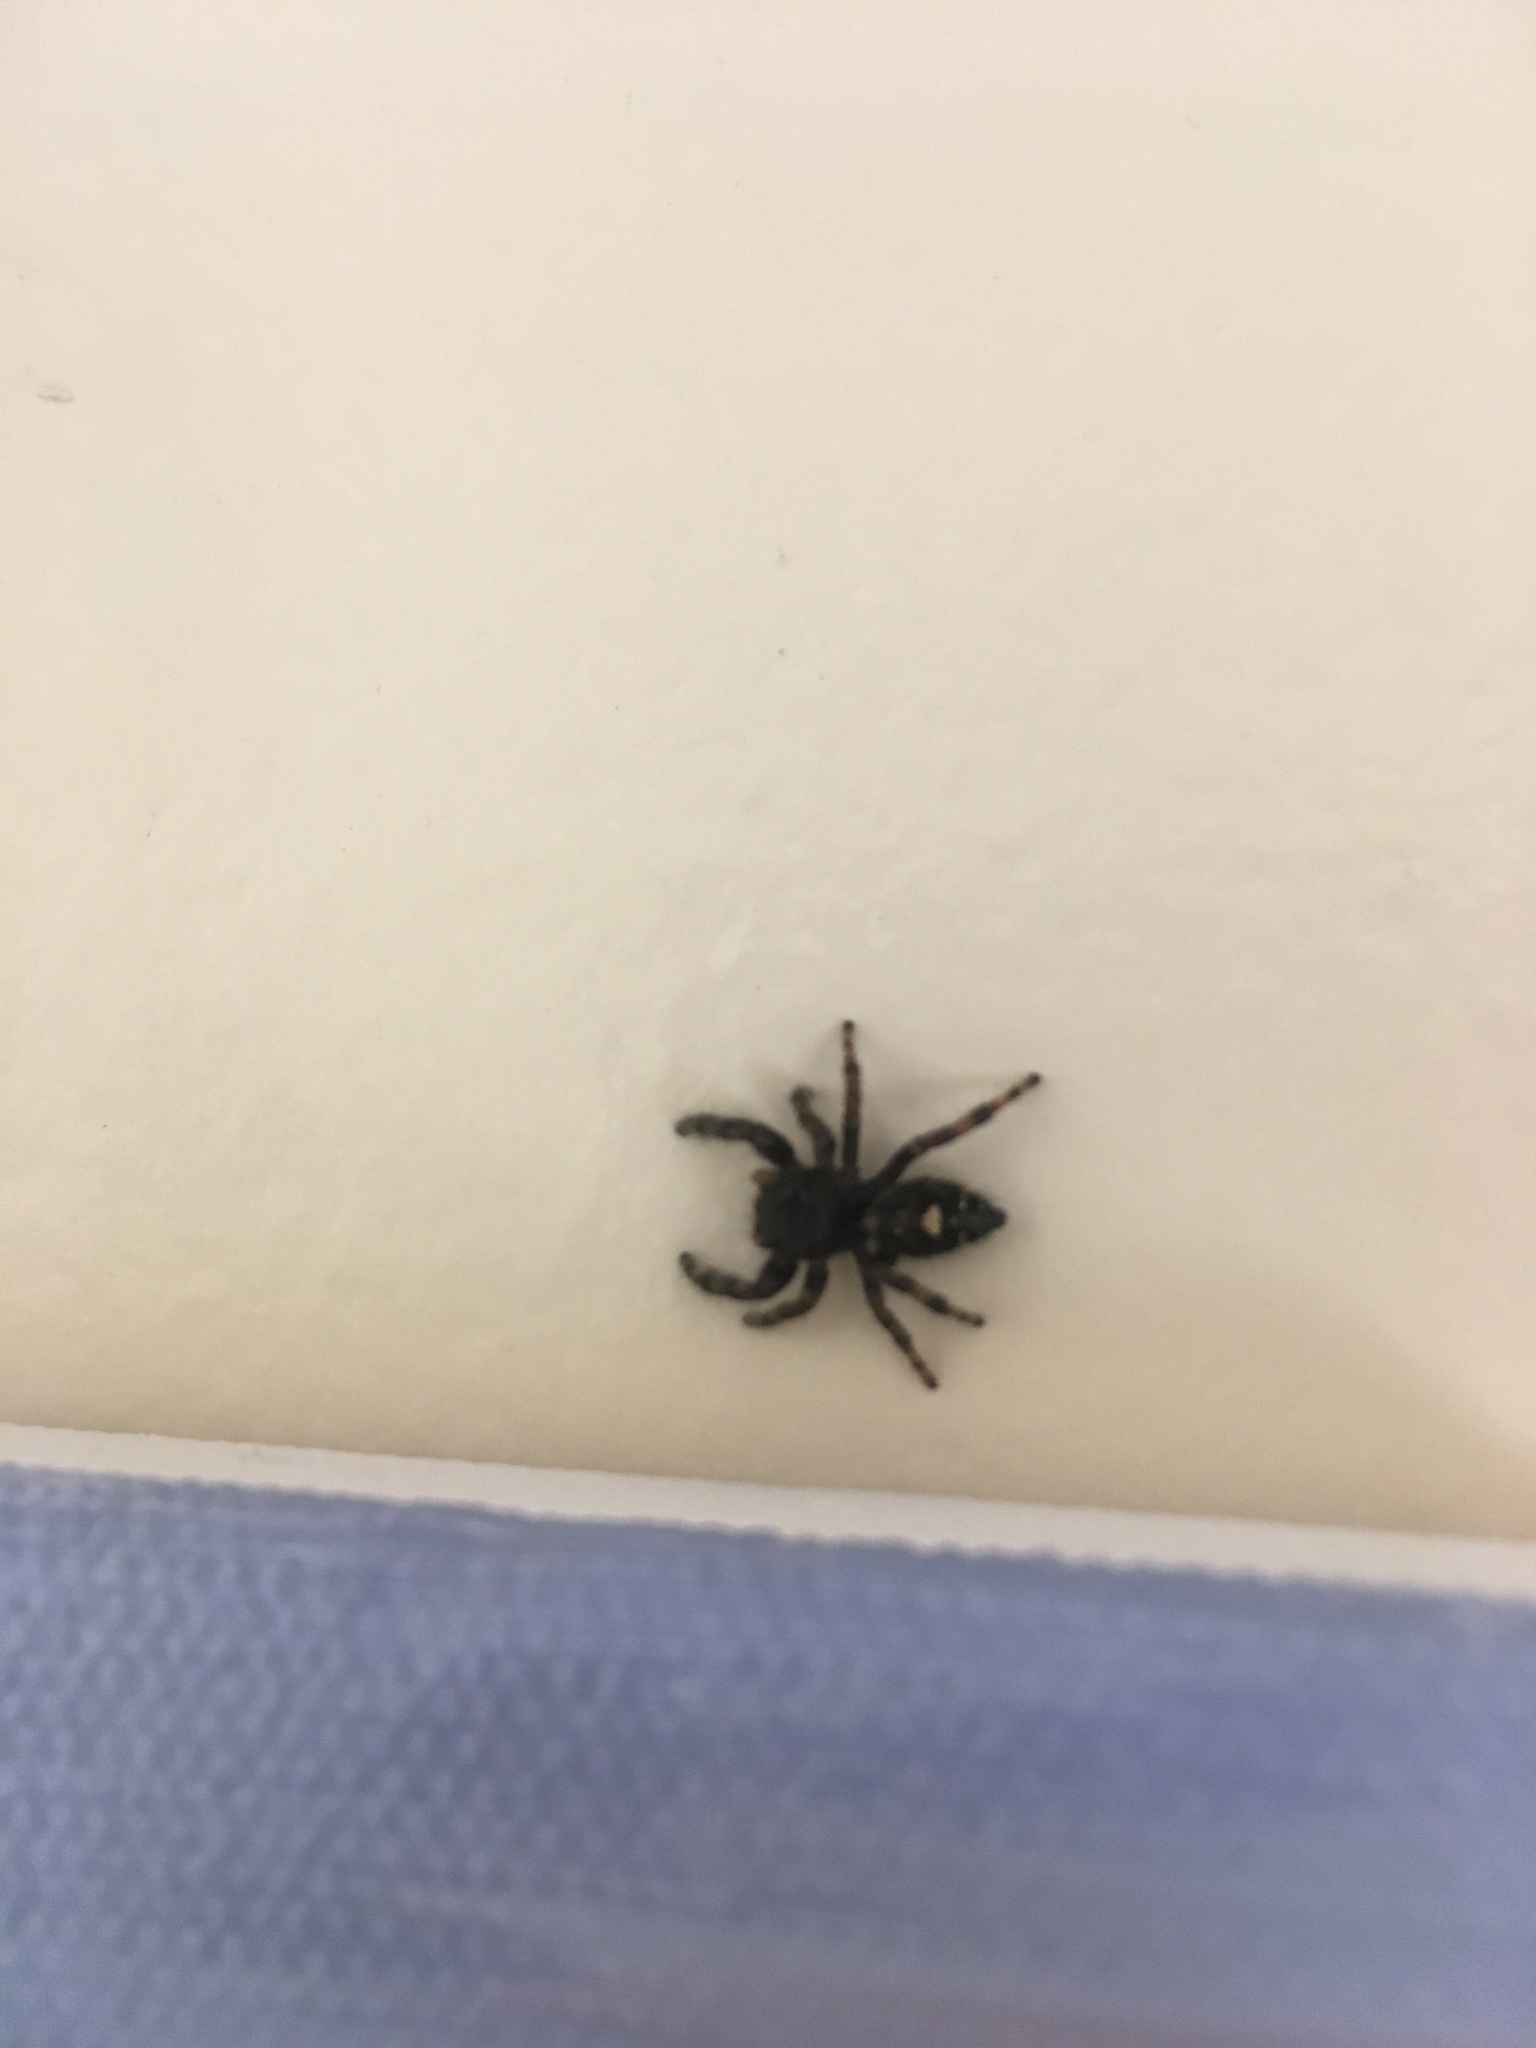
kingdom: Animalia
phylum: Arthropoda
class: Arachnida
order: Araneae
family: Salticidae
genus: Phidippus
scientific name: Phidippus audax
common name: Bold jumper
